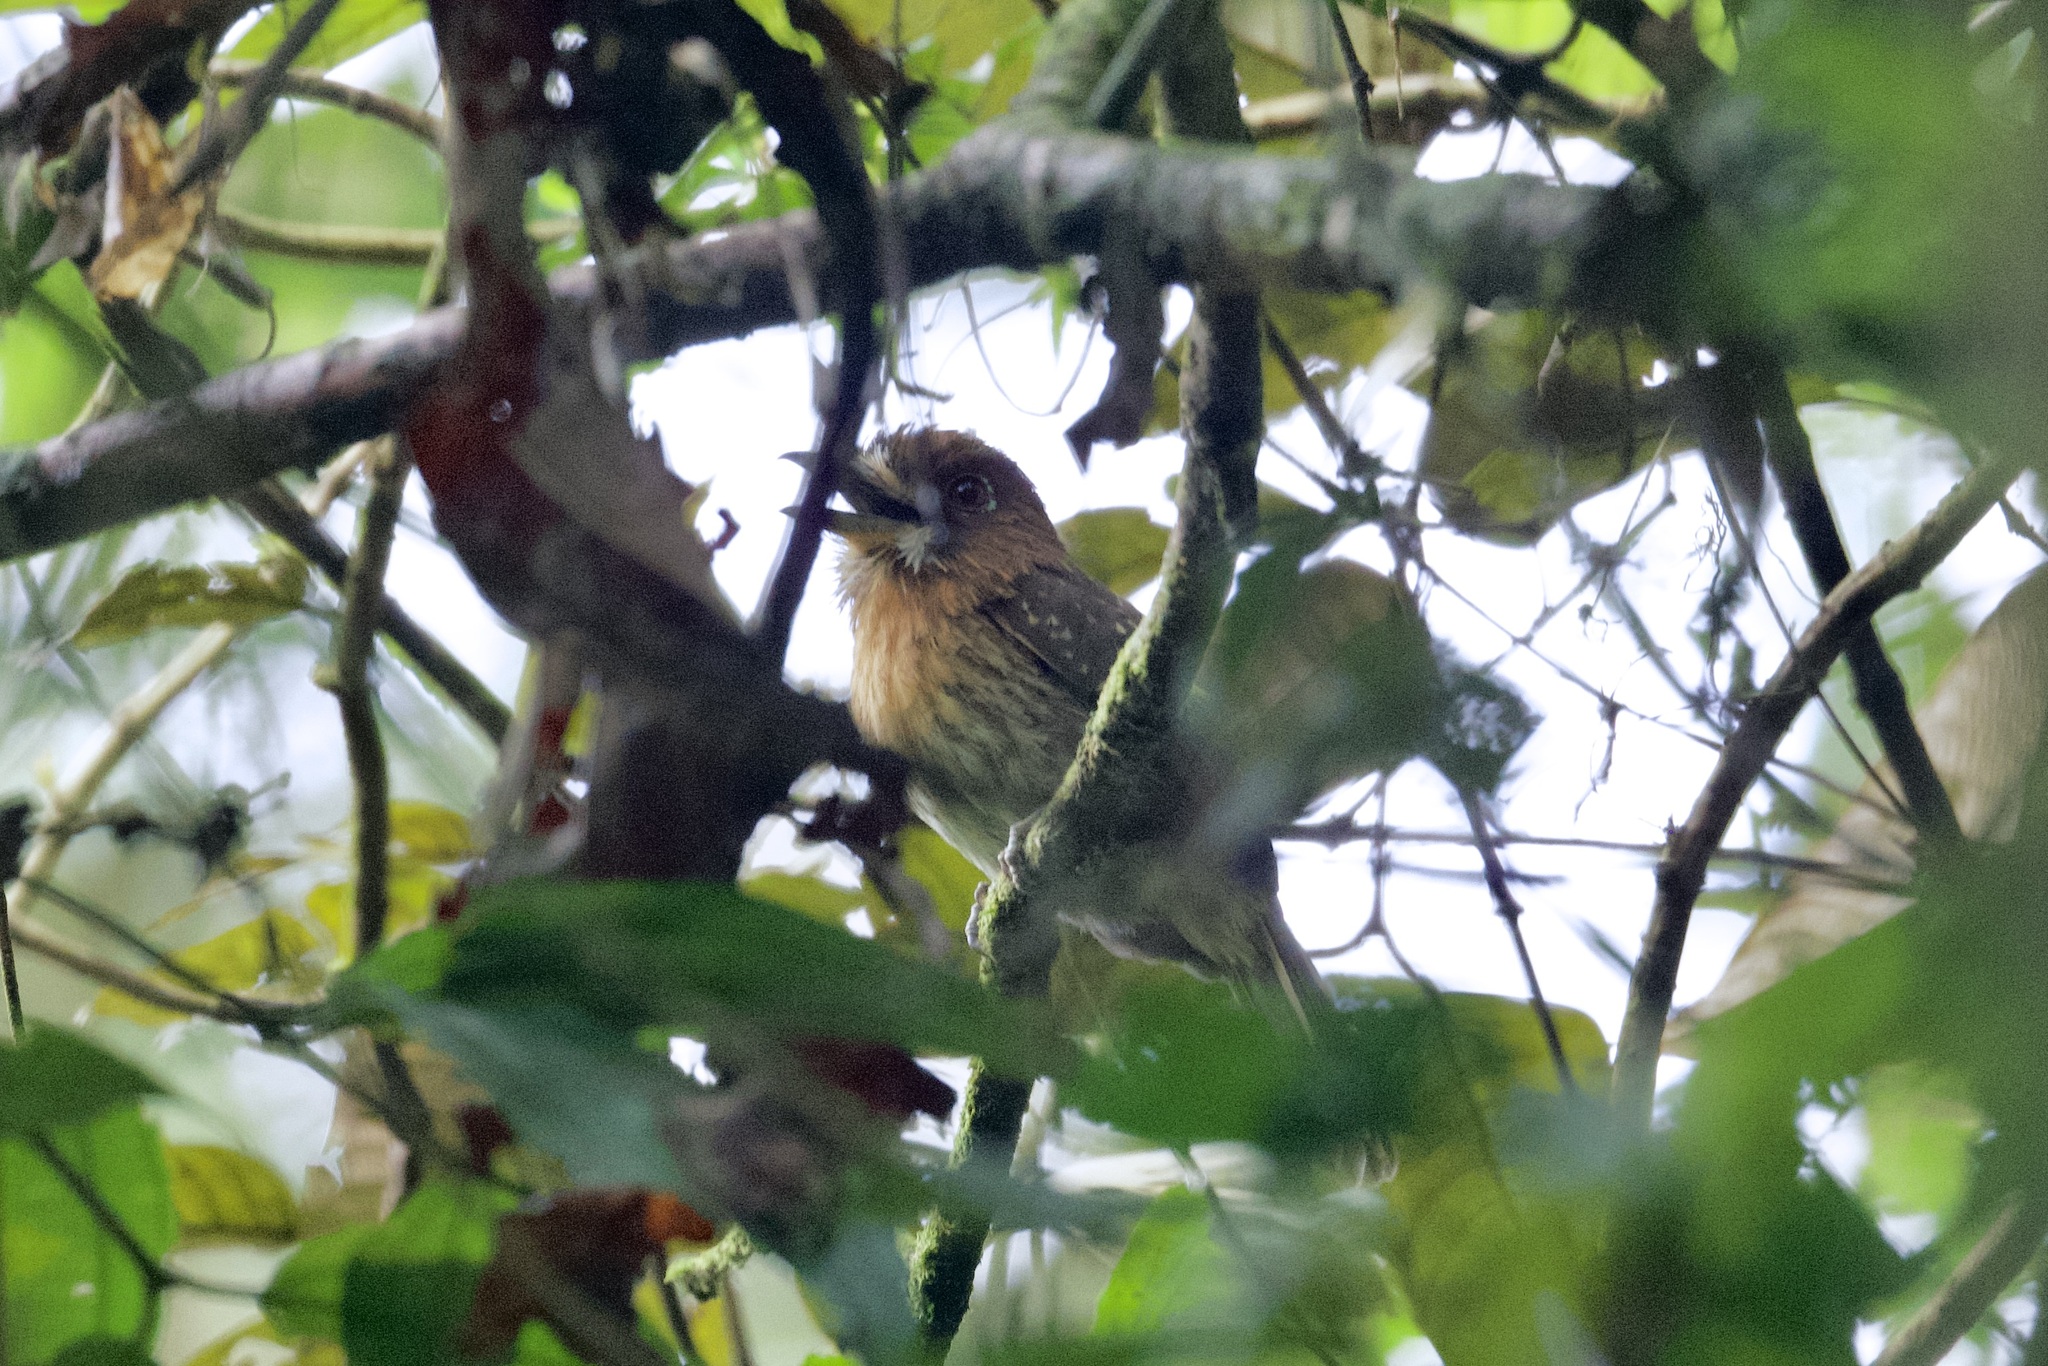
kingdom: Animalia
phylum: Chordata
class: Aves
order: Piciformes
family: Bucconidae
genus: Malacoptila
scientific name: Malacoptila mystacalis
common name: Moustached puffbird
